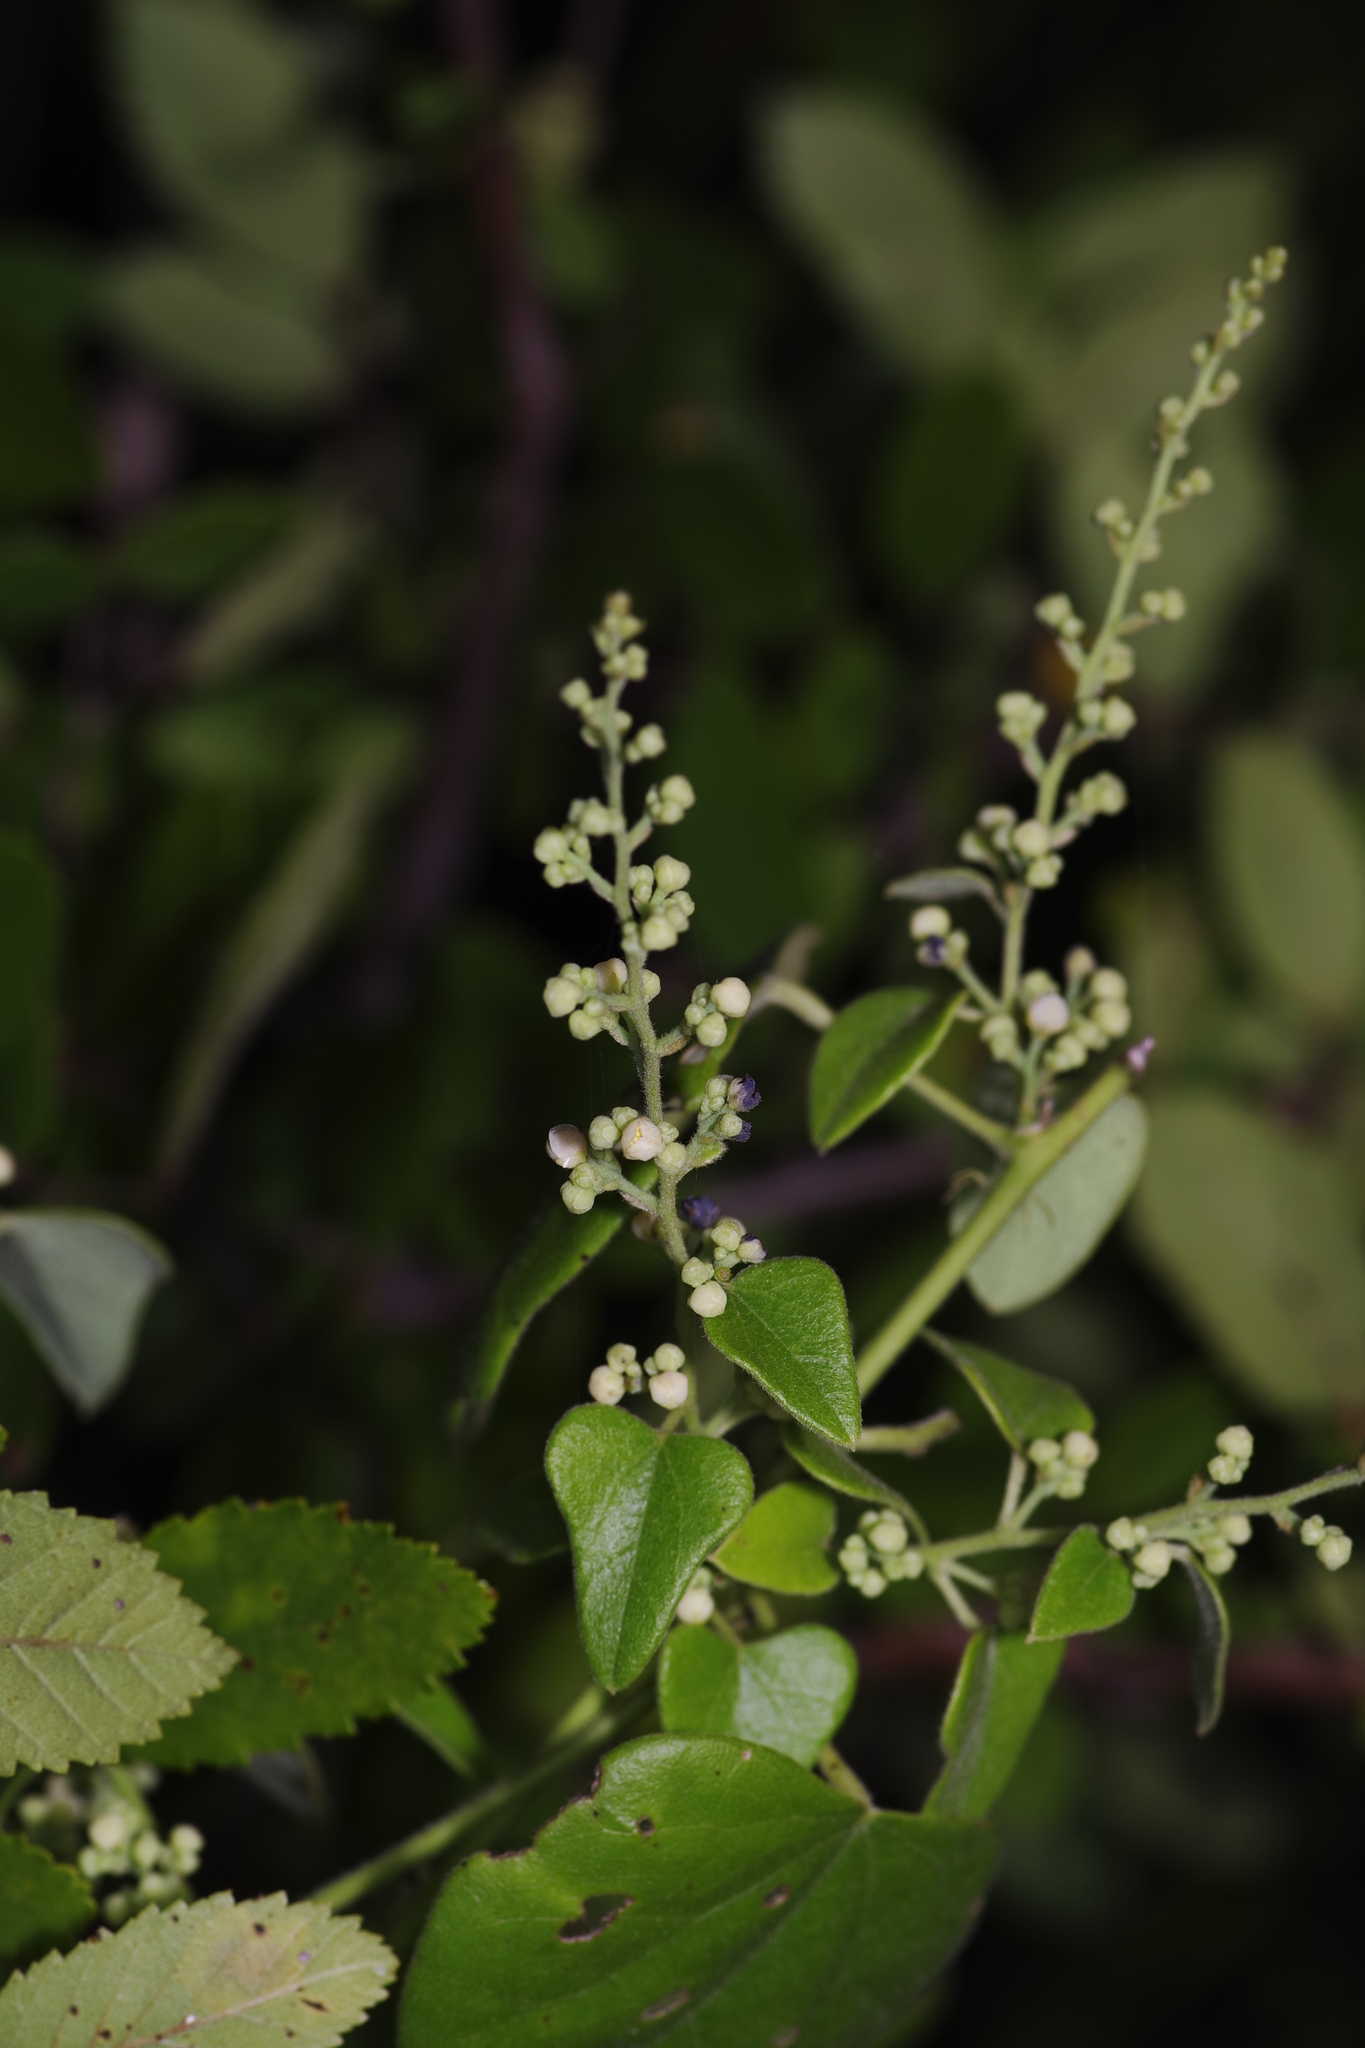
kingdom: Plantae
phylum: Tracheophyta
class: Magnoliopsida
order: Ranunculales
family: Menispermaceae
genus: Cocculus
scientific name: Cocculus carolinus
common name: Carolina moonseed
